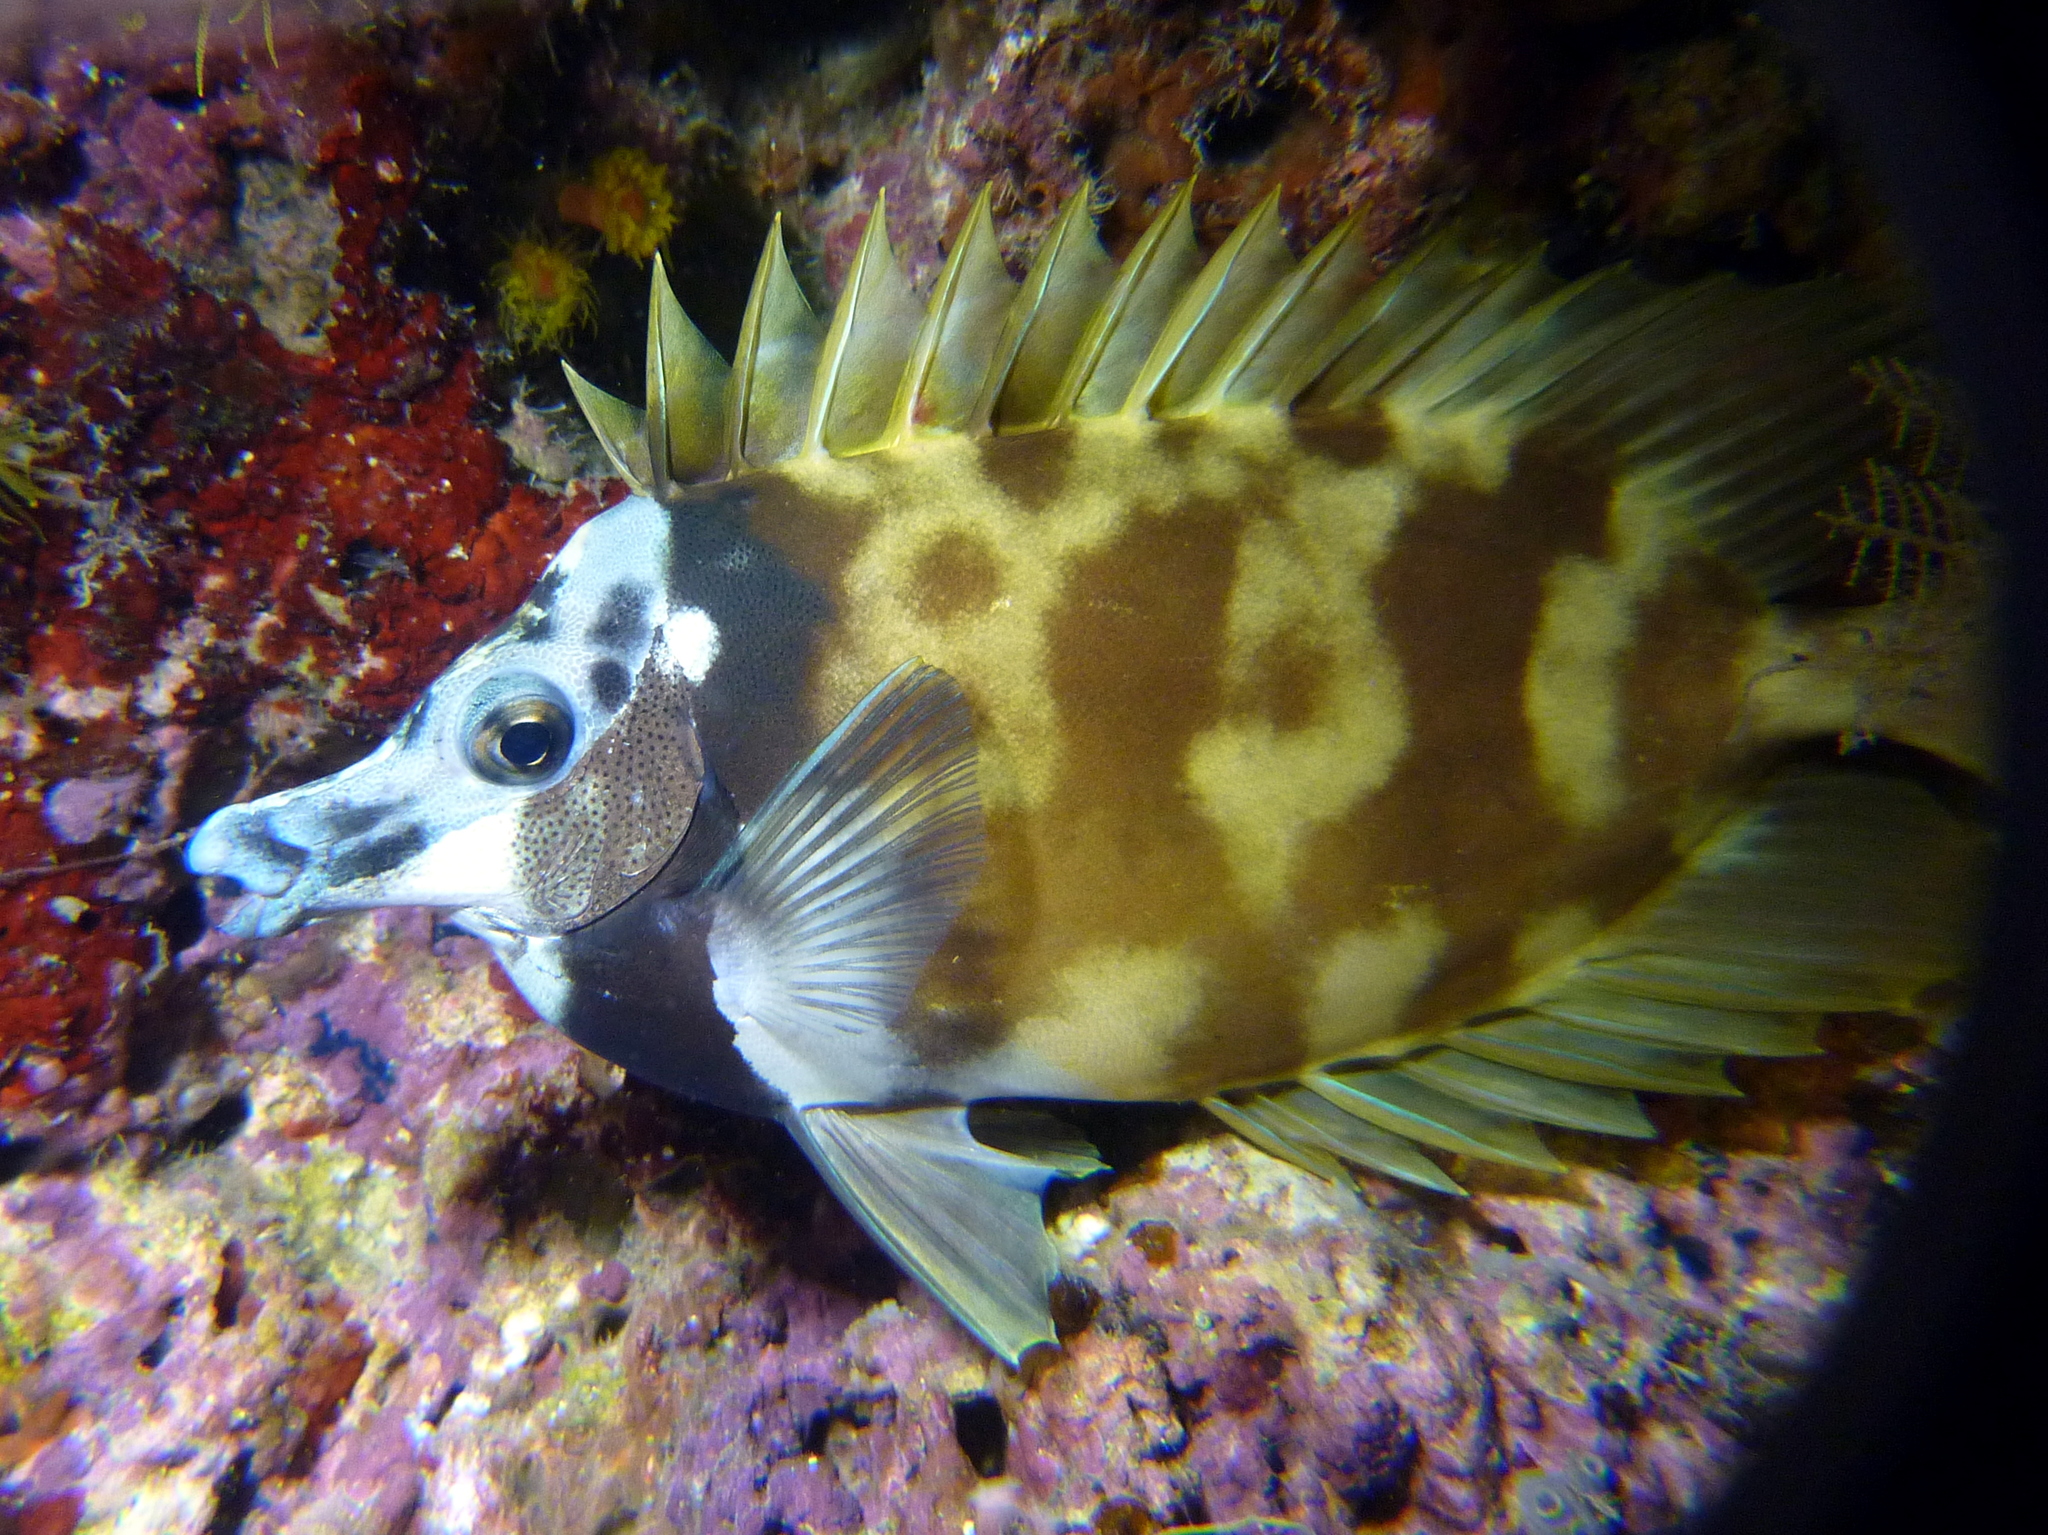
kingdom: Animalia
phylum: Chordata
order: Perciformes
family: Siganidae
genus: Siganus
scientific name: Siganus vulpinus
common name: Foxface
